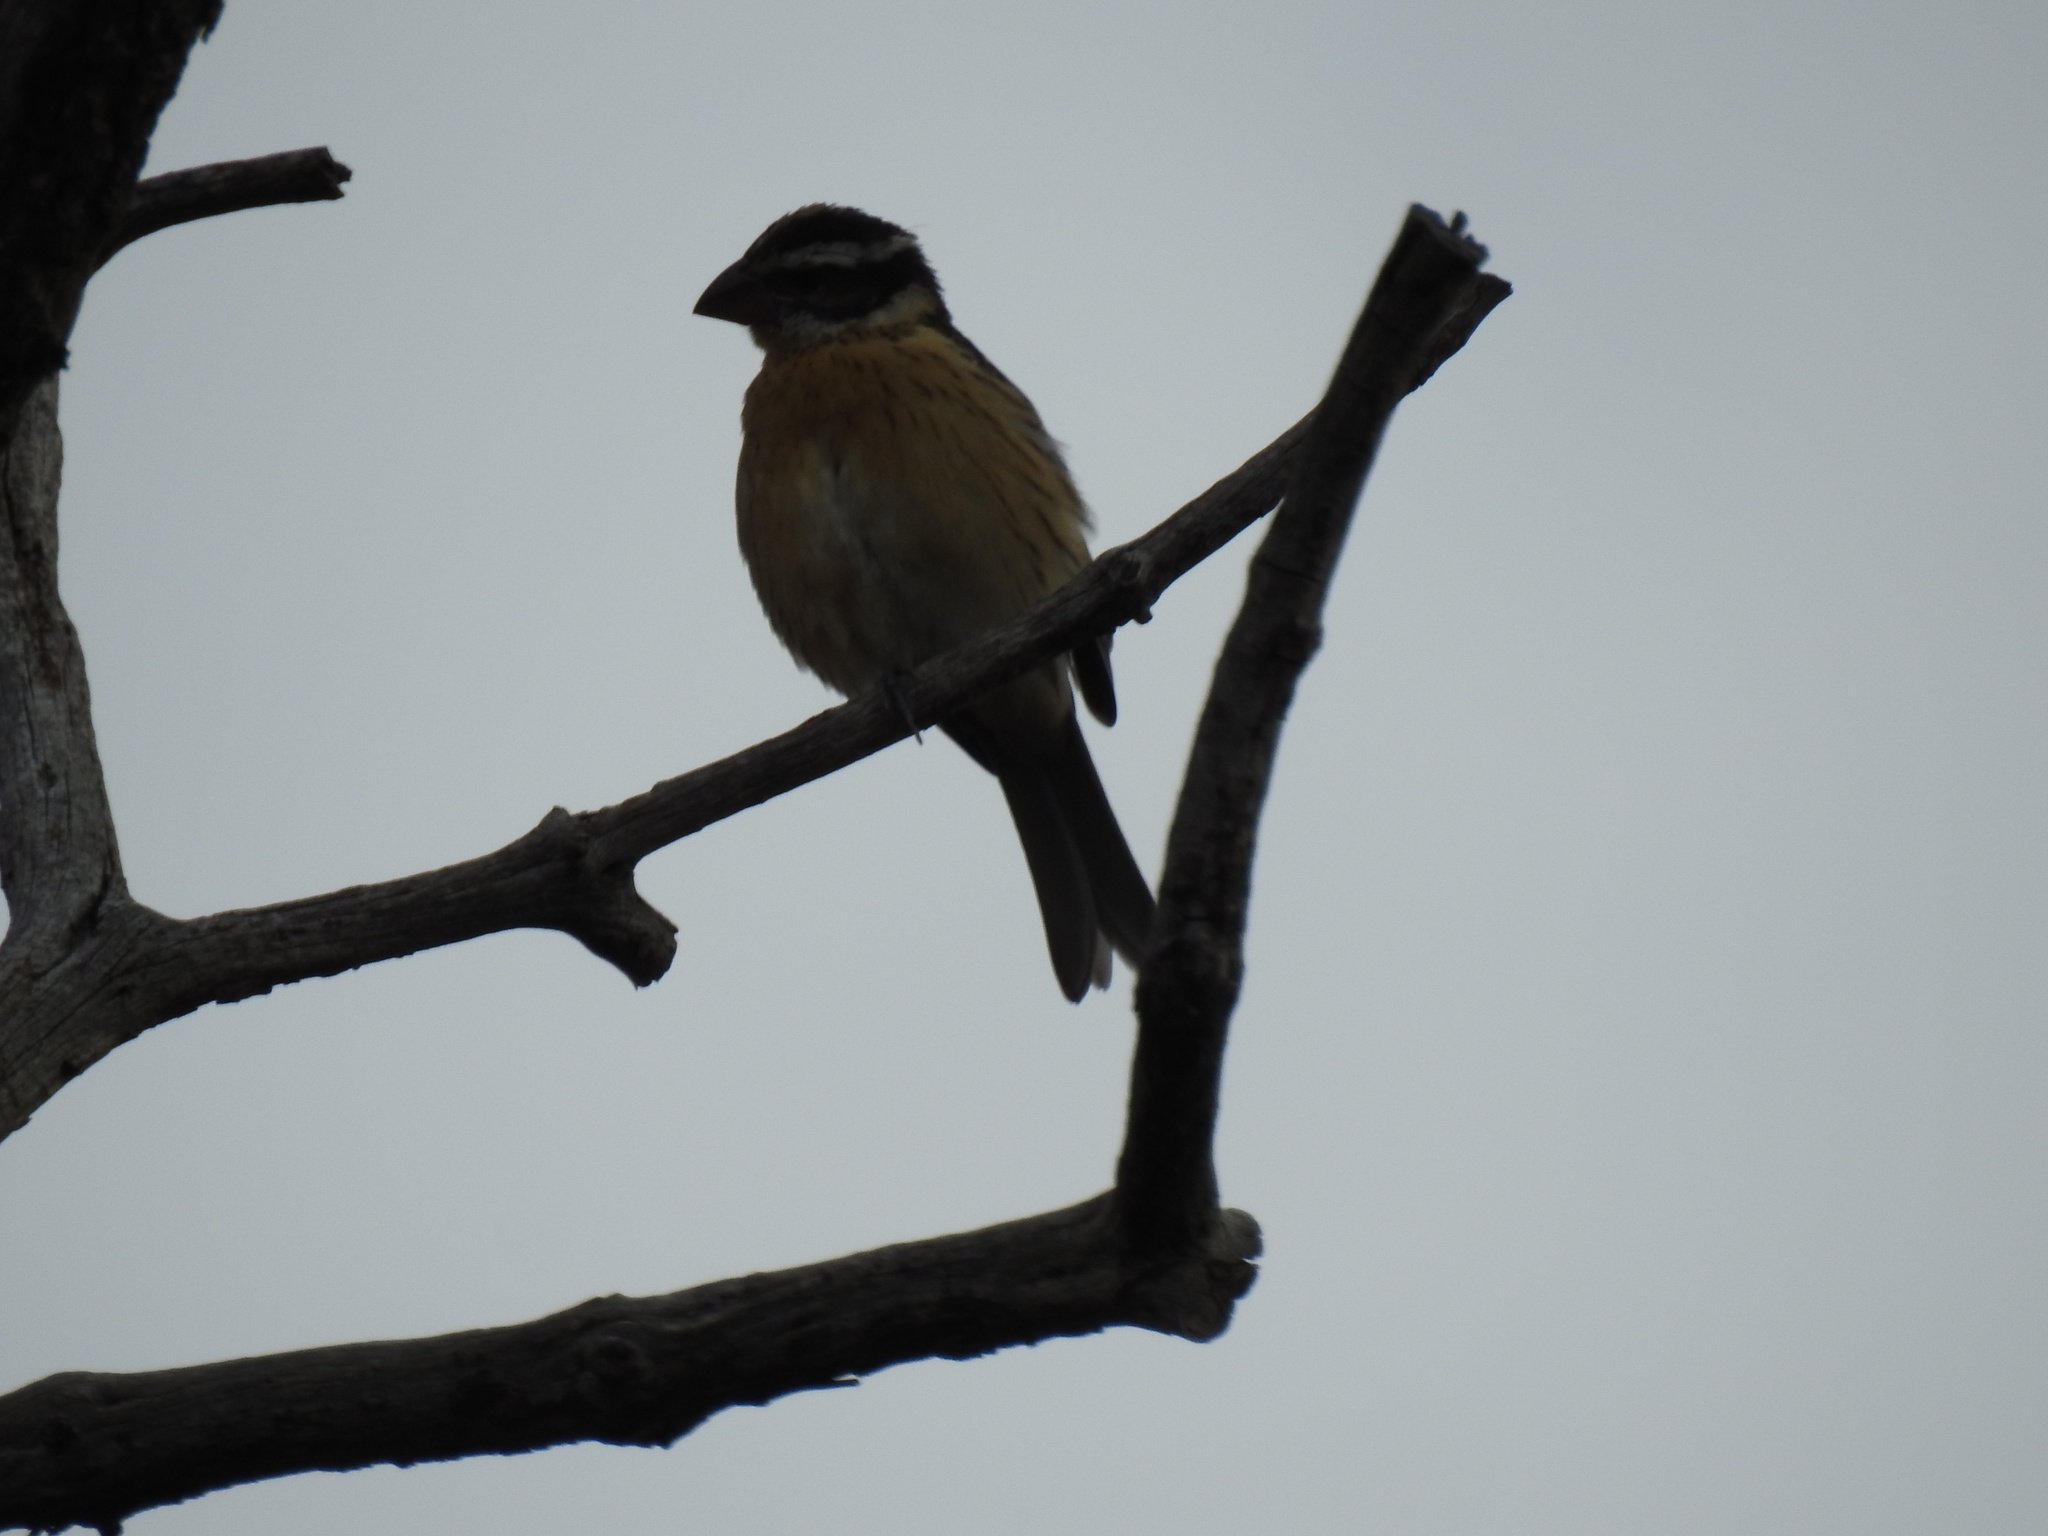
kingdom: Animalia
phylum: Chordata
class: Aves
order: Passeriformes
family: Cardinalidae
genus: Pheucticus
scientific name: Pheucticus melanocephalus
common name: Black-headed grosbeak
